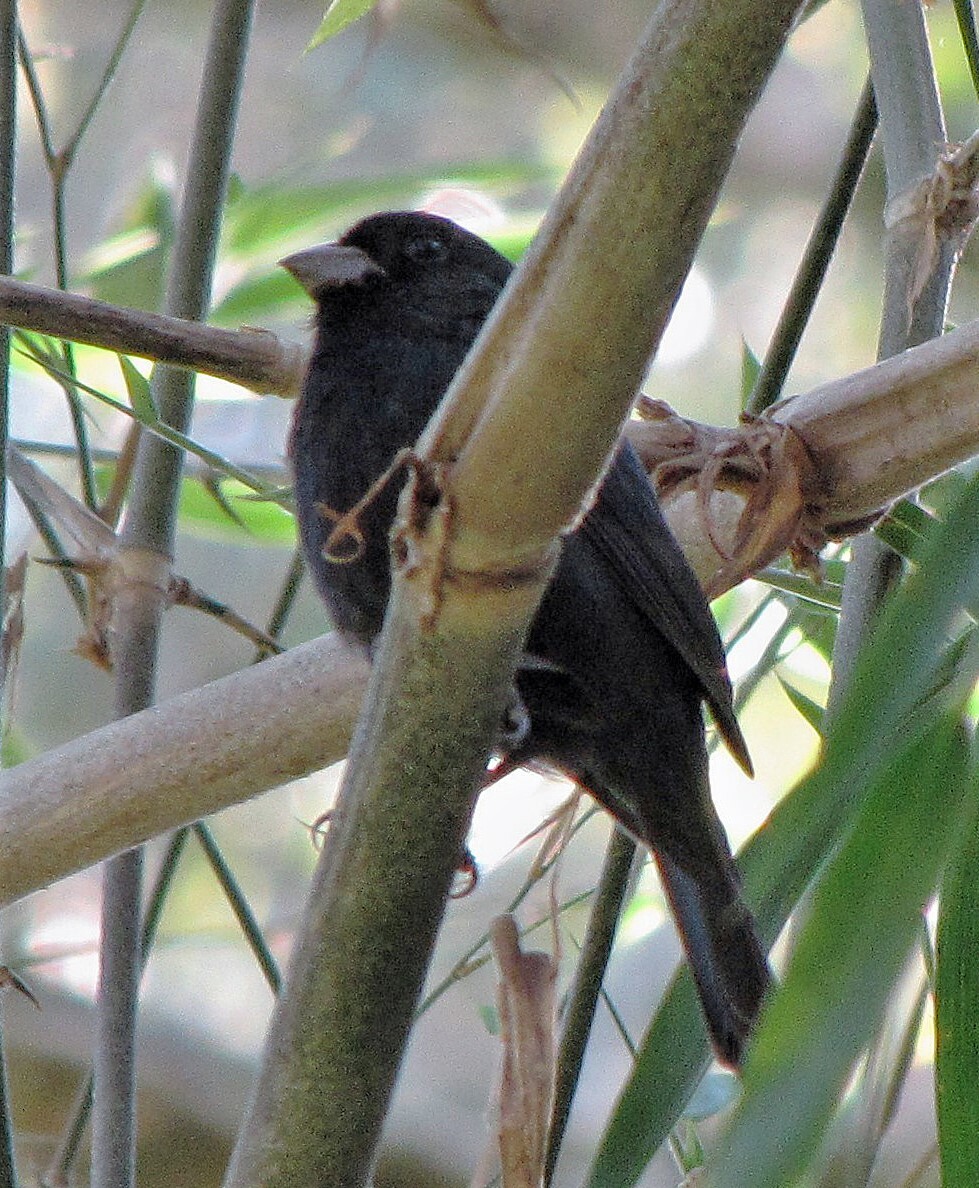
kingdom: Animalia
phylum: Chordata
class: Aves
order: Passeriformes
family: Cardinalidae
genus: Amaurospiza
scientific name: Amaurospiza moesta
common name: Blackish-blue seedeater
